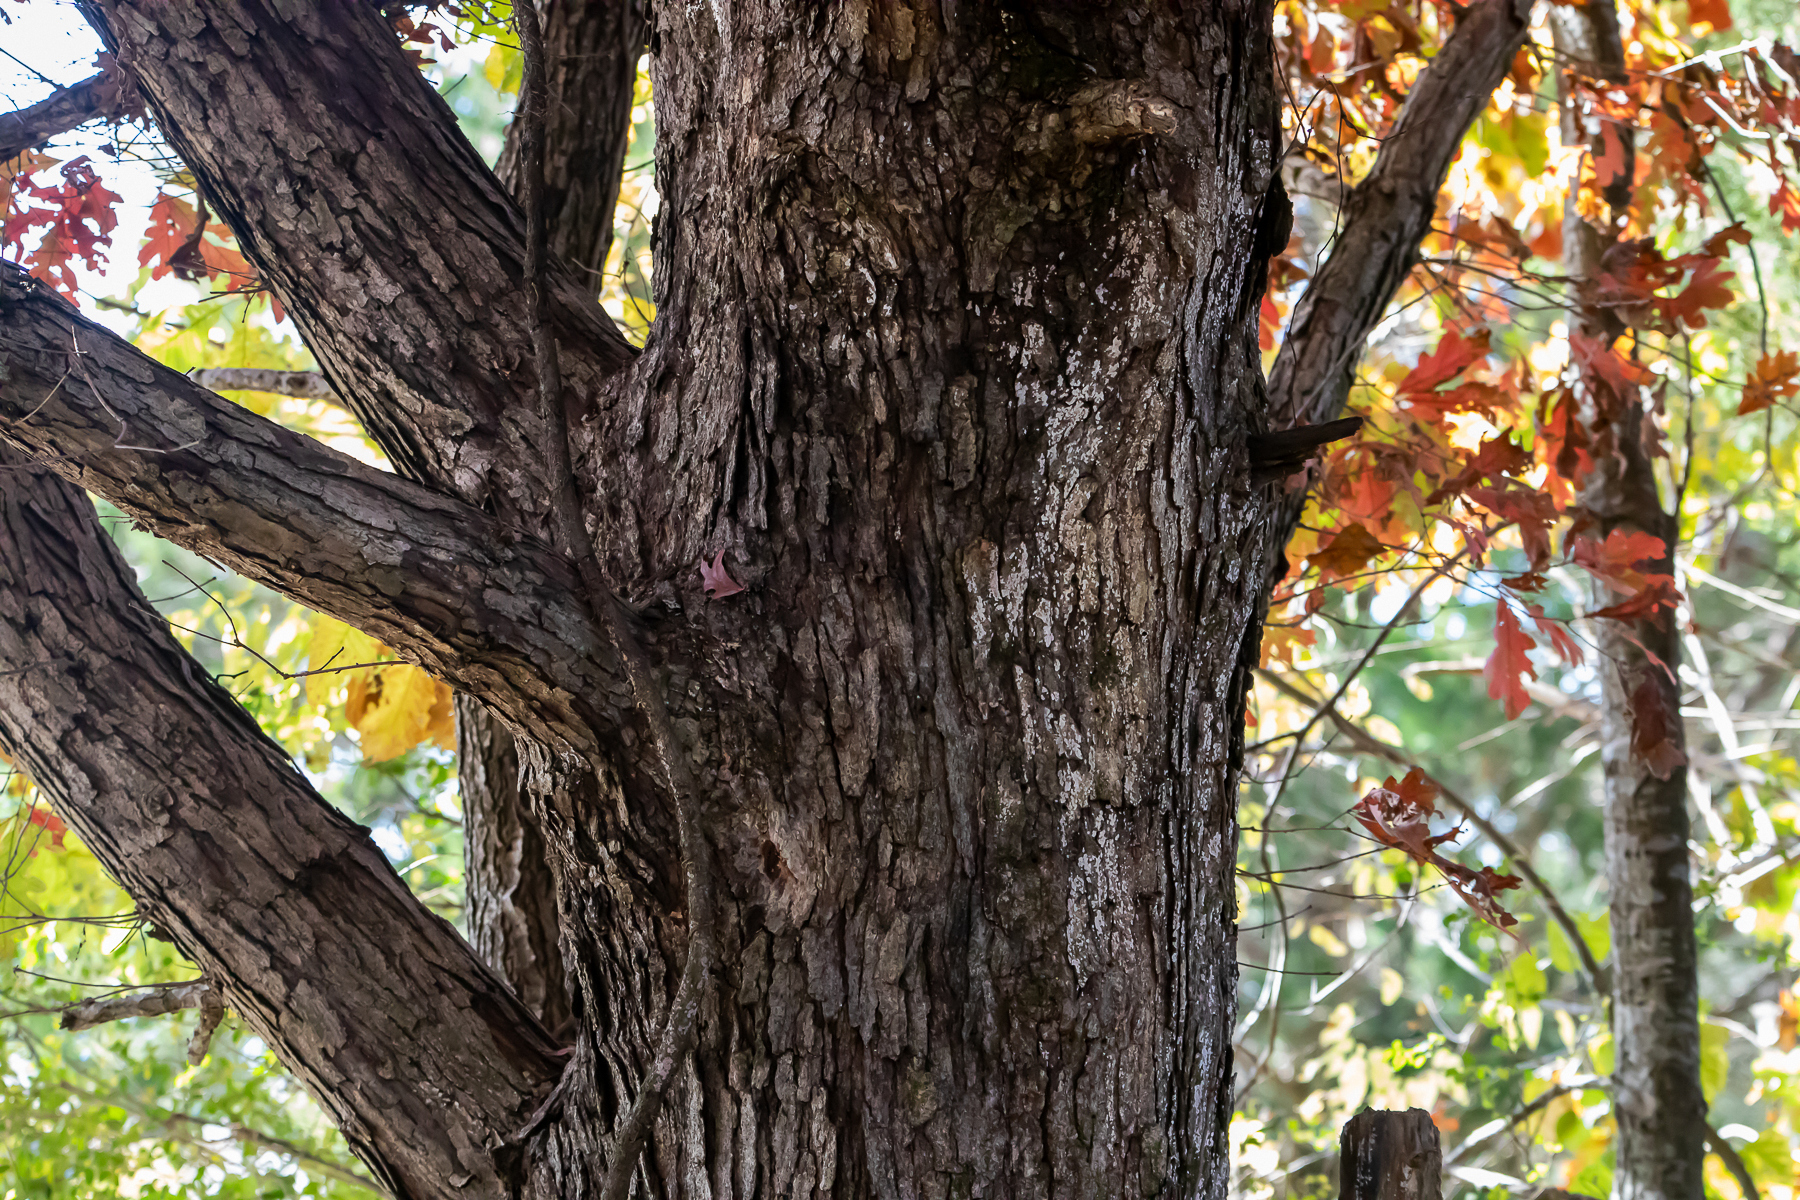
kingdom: Plantae
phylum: Tracheophyta
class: Magnoliopsida
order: Fagales
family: Fagaceae
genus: Quercus
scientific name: Quercus alba
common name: White oak
